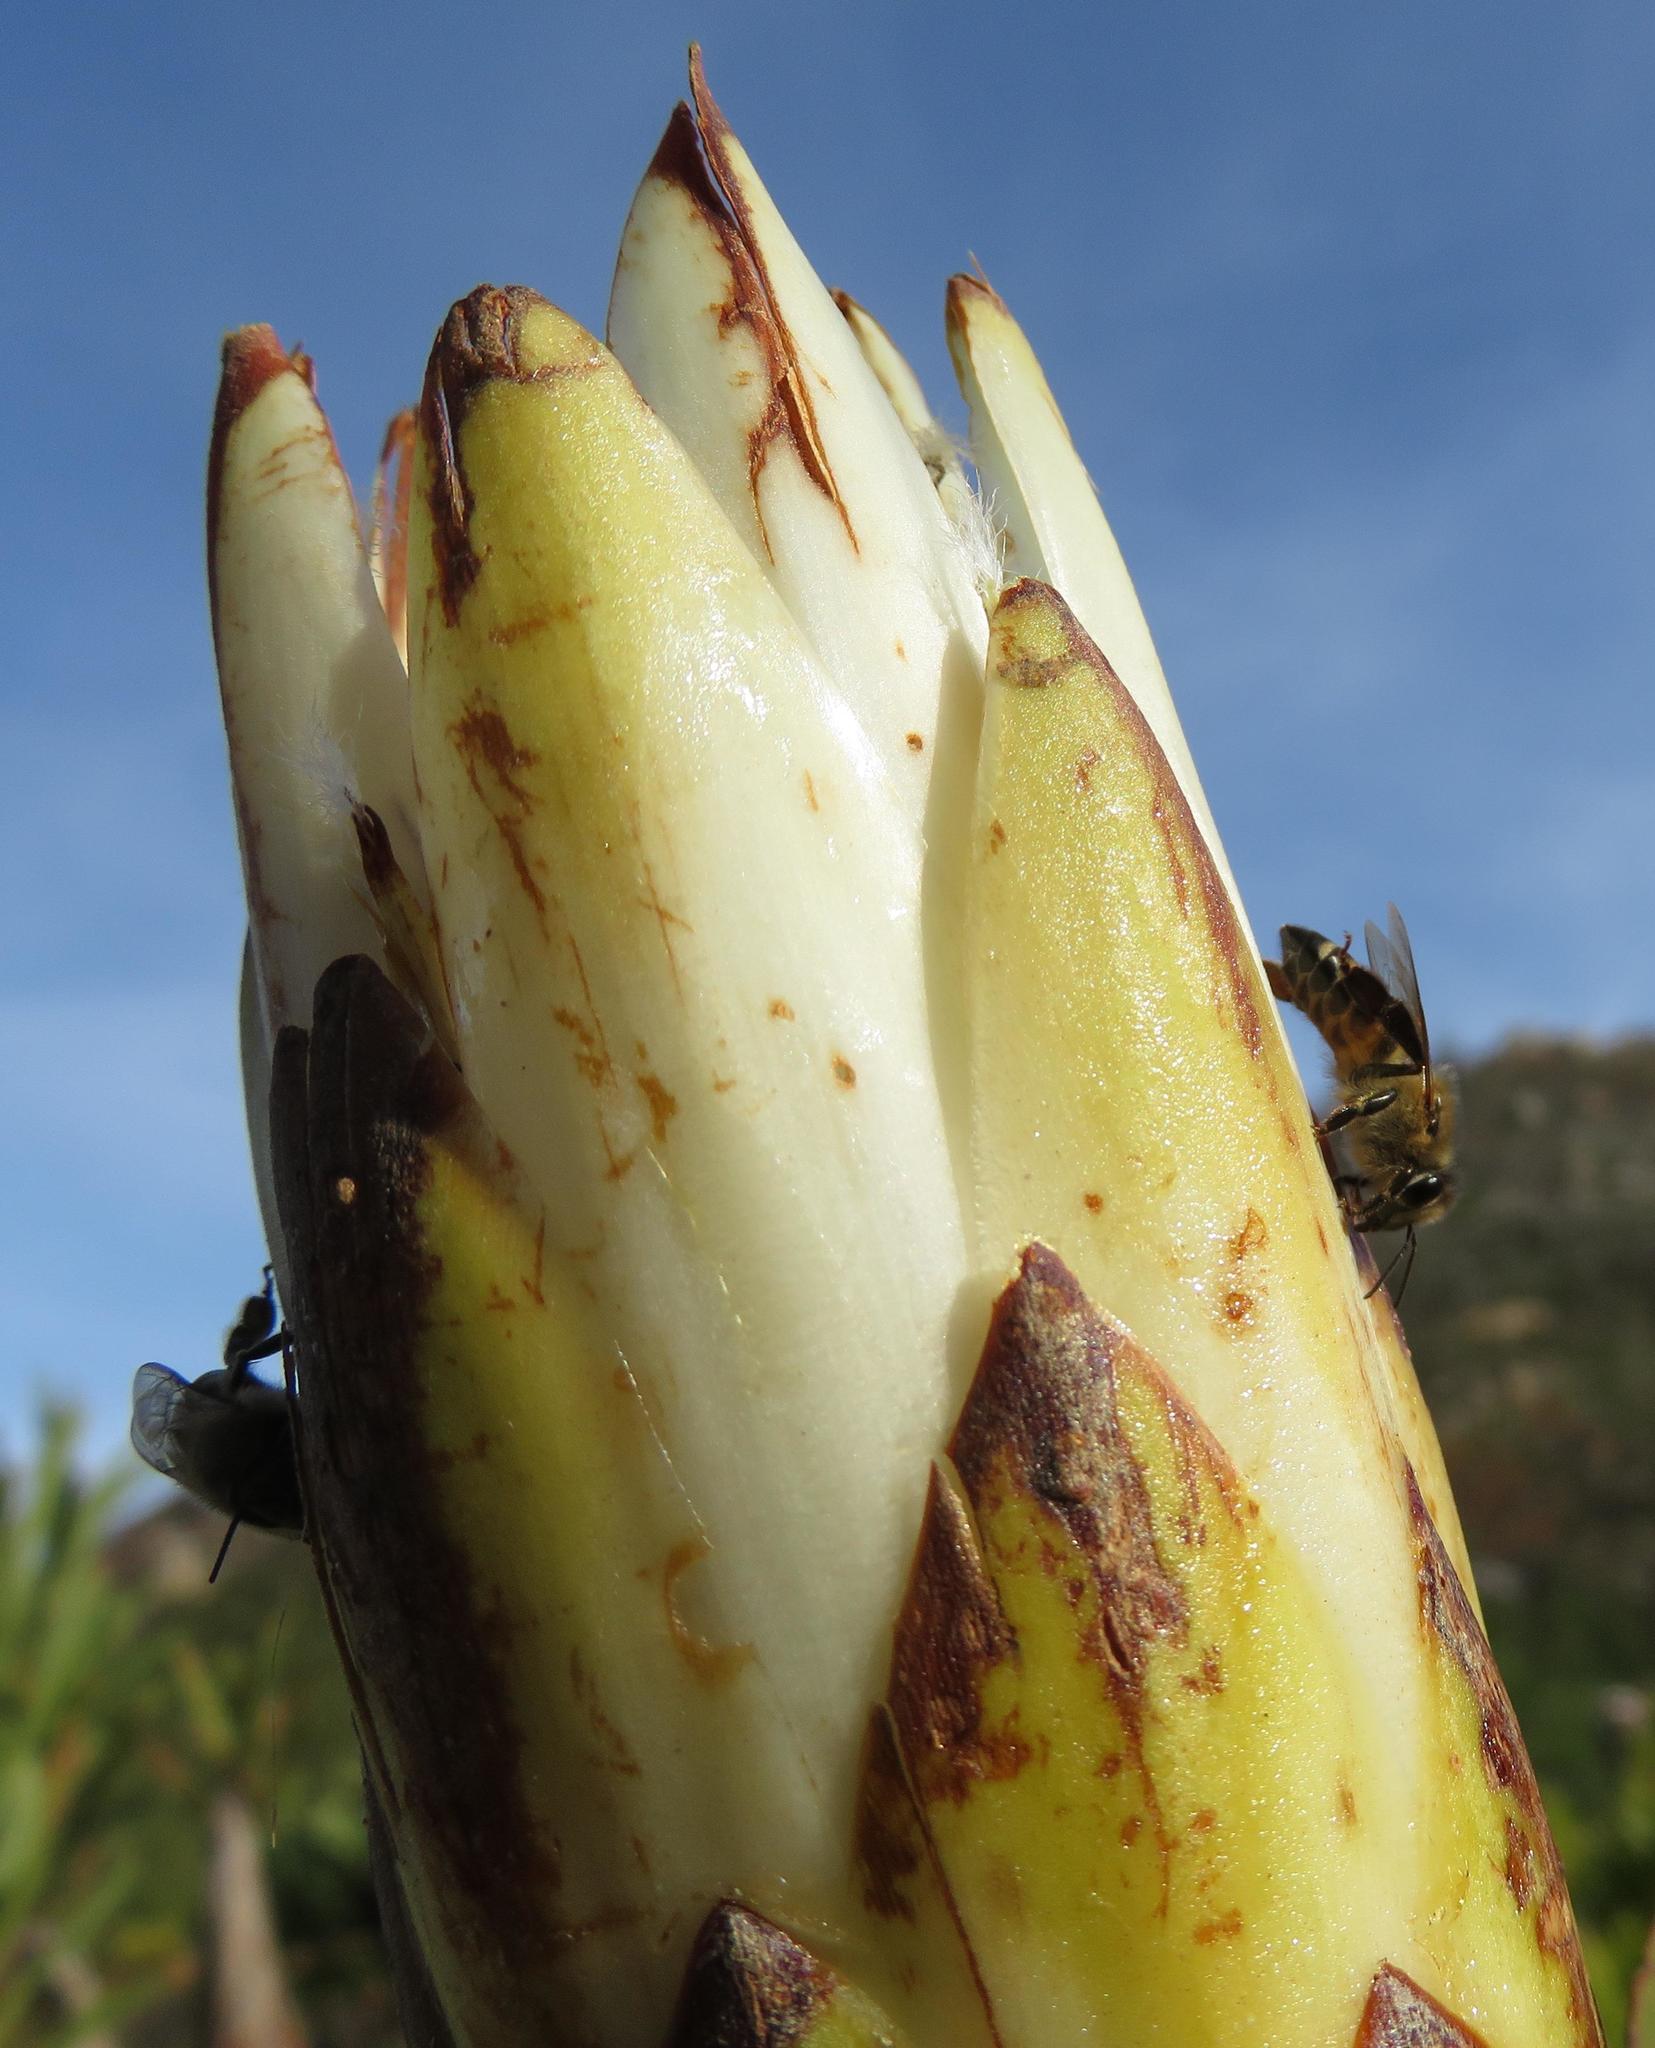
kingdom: Plantae
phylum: Tracheophyta
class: Magnoliopsida
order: Proteales
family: Proteaceae
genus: Protea
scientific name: Protea repens
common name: Sugarbush
